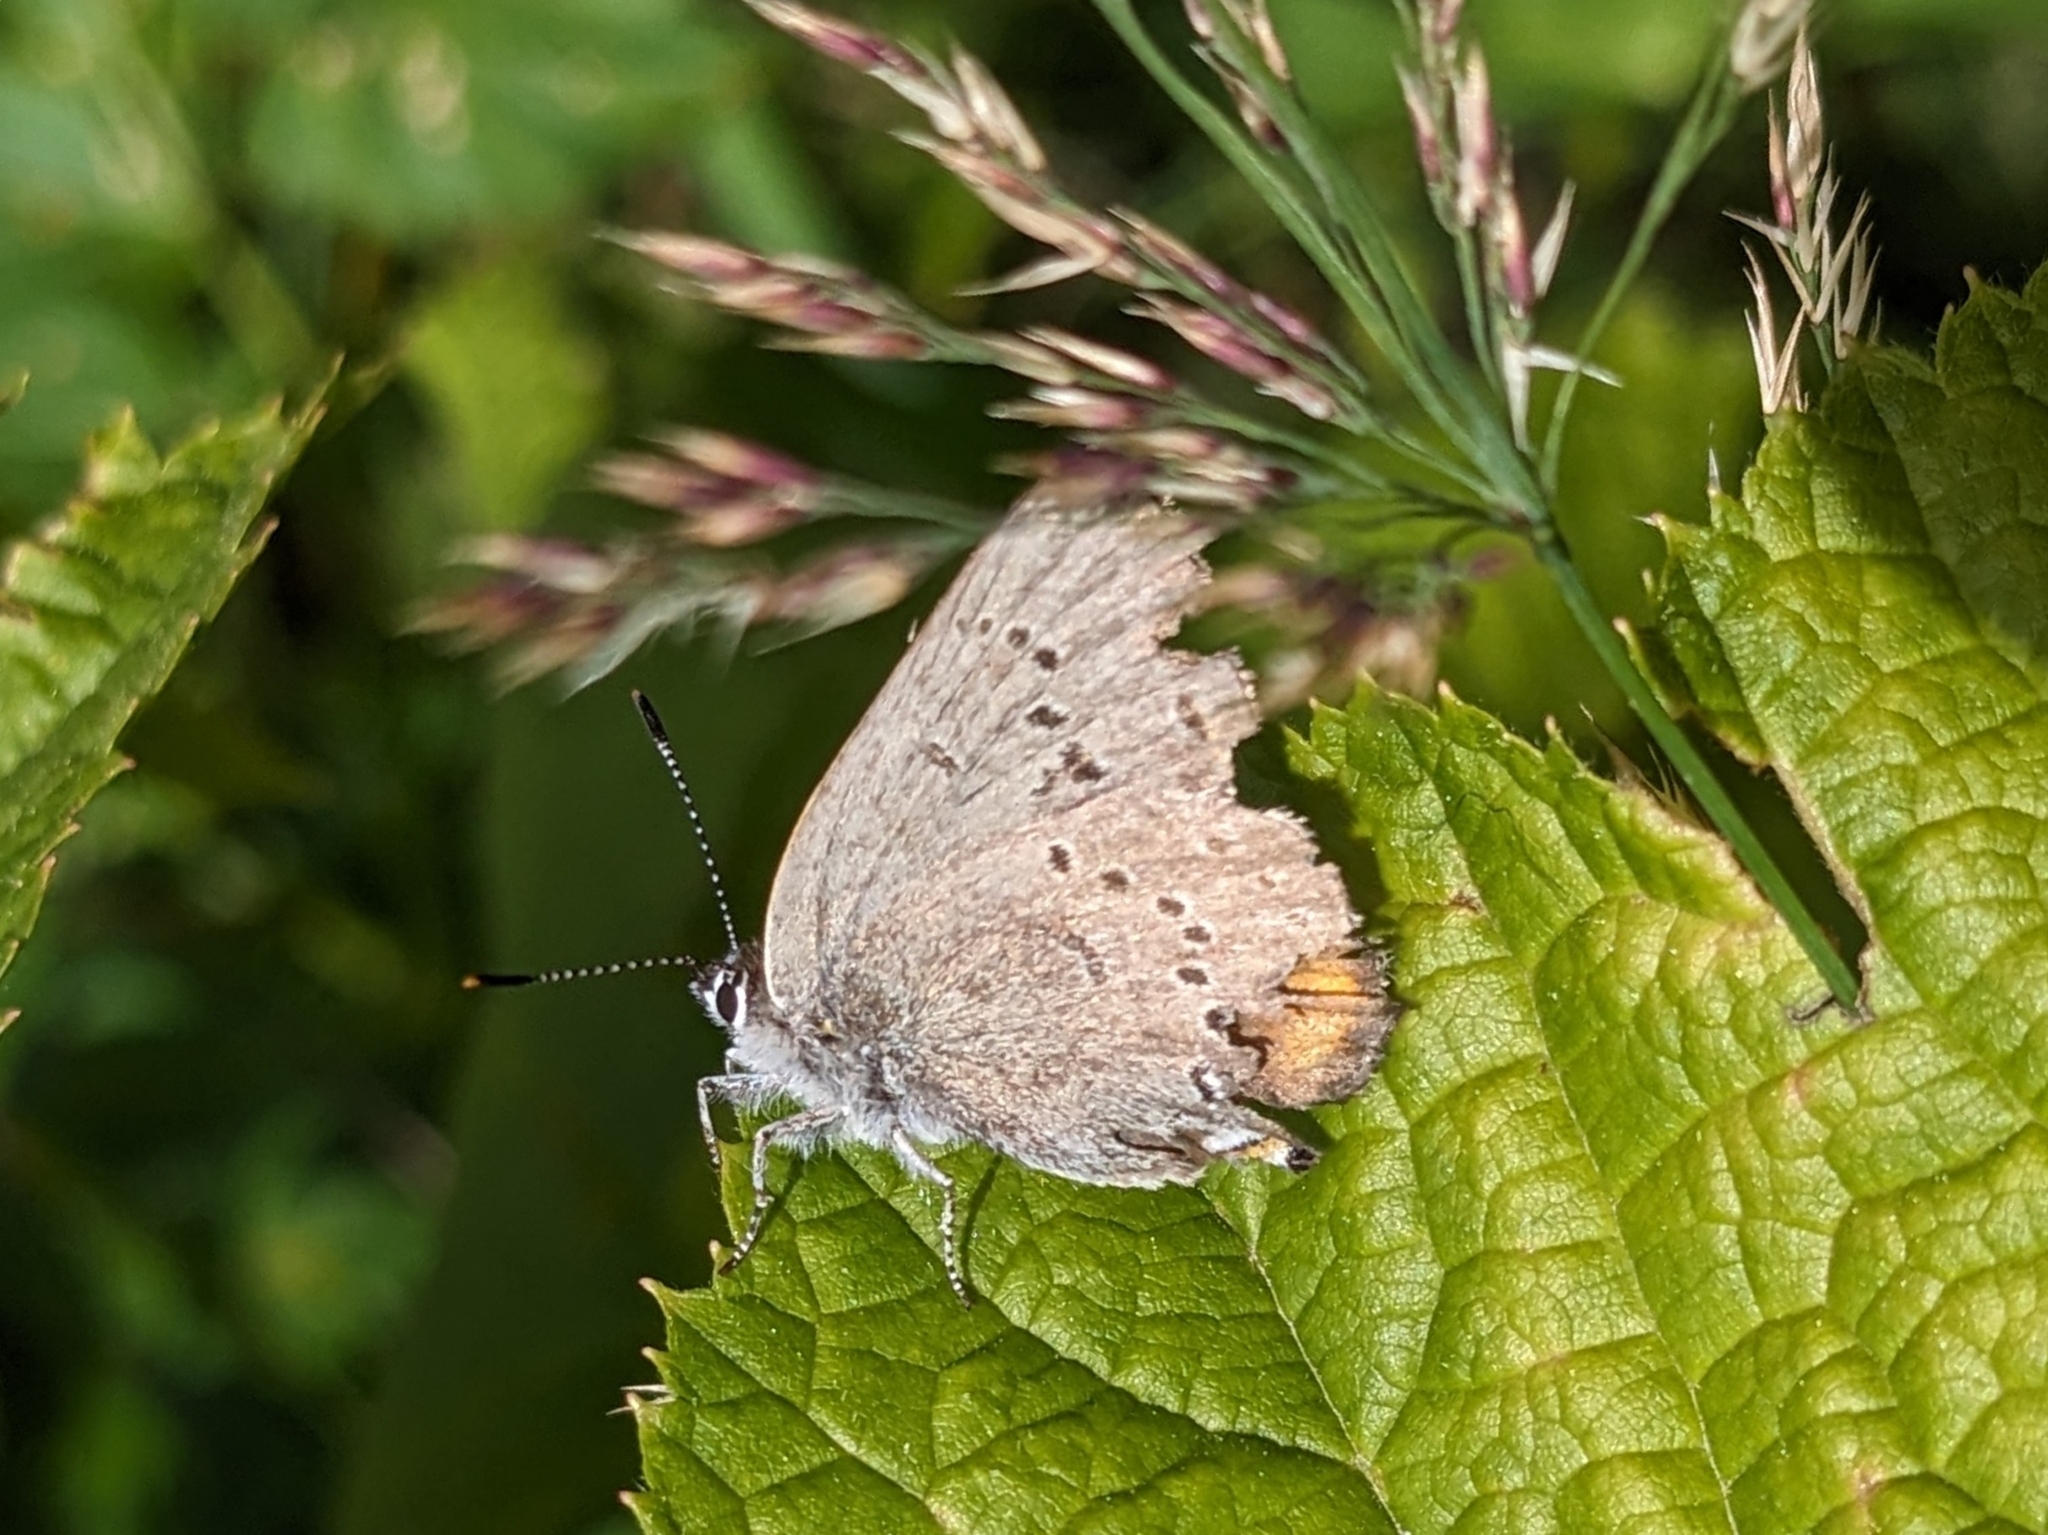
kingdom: Animalia
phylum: Arthropoda
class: Insecta
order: Lepidoptera
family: Lycaenidae
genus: Strymon
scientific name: Strymon sylvinus
